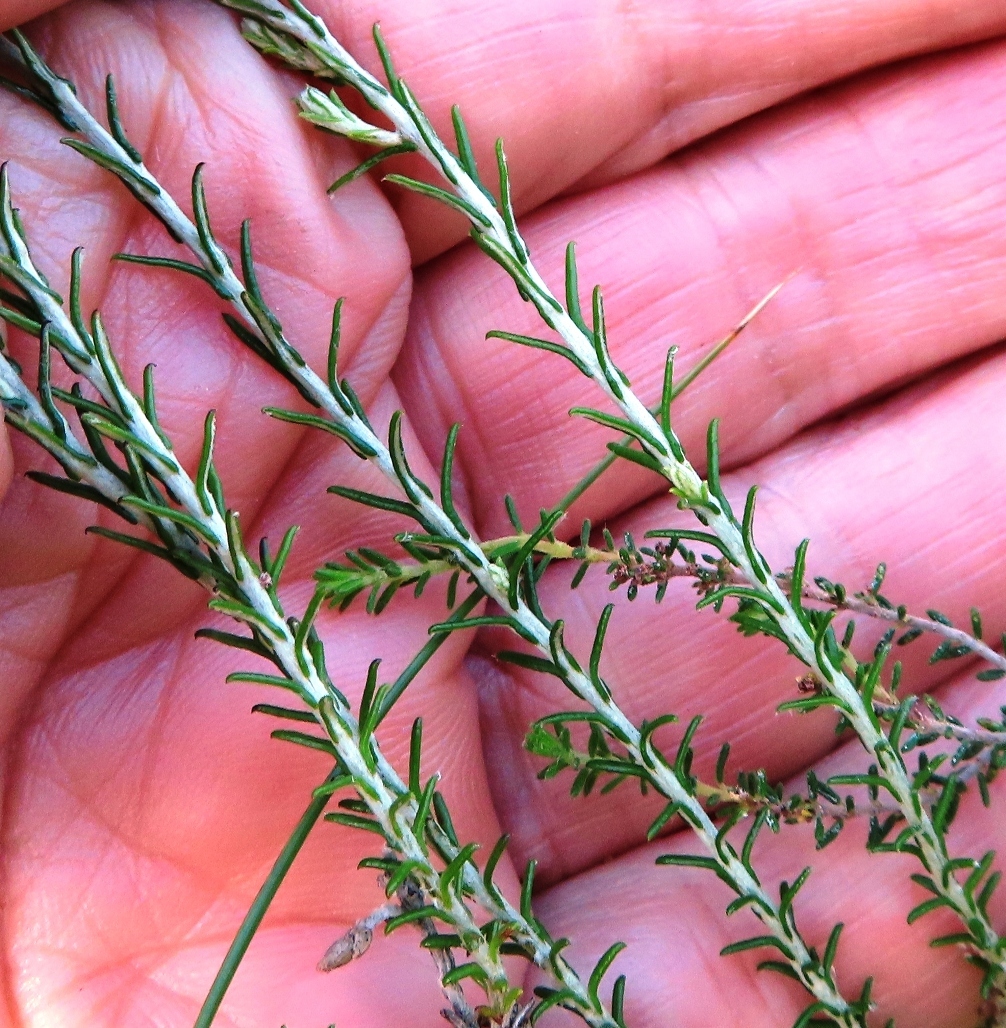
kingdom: Plantae
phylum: Tracheophyta
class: Magnoliopsida
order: Asterales
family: Asteraceae
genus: Helichrysum
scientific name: Helichrysum teretifolium
